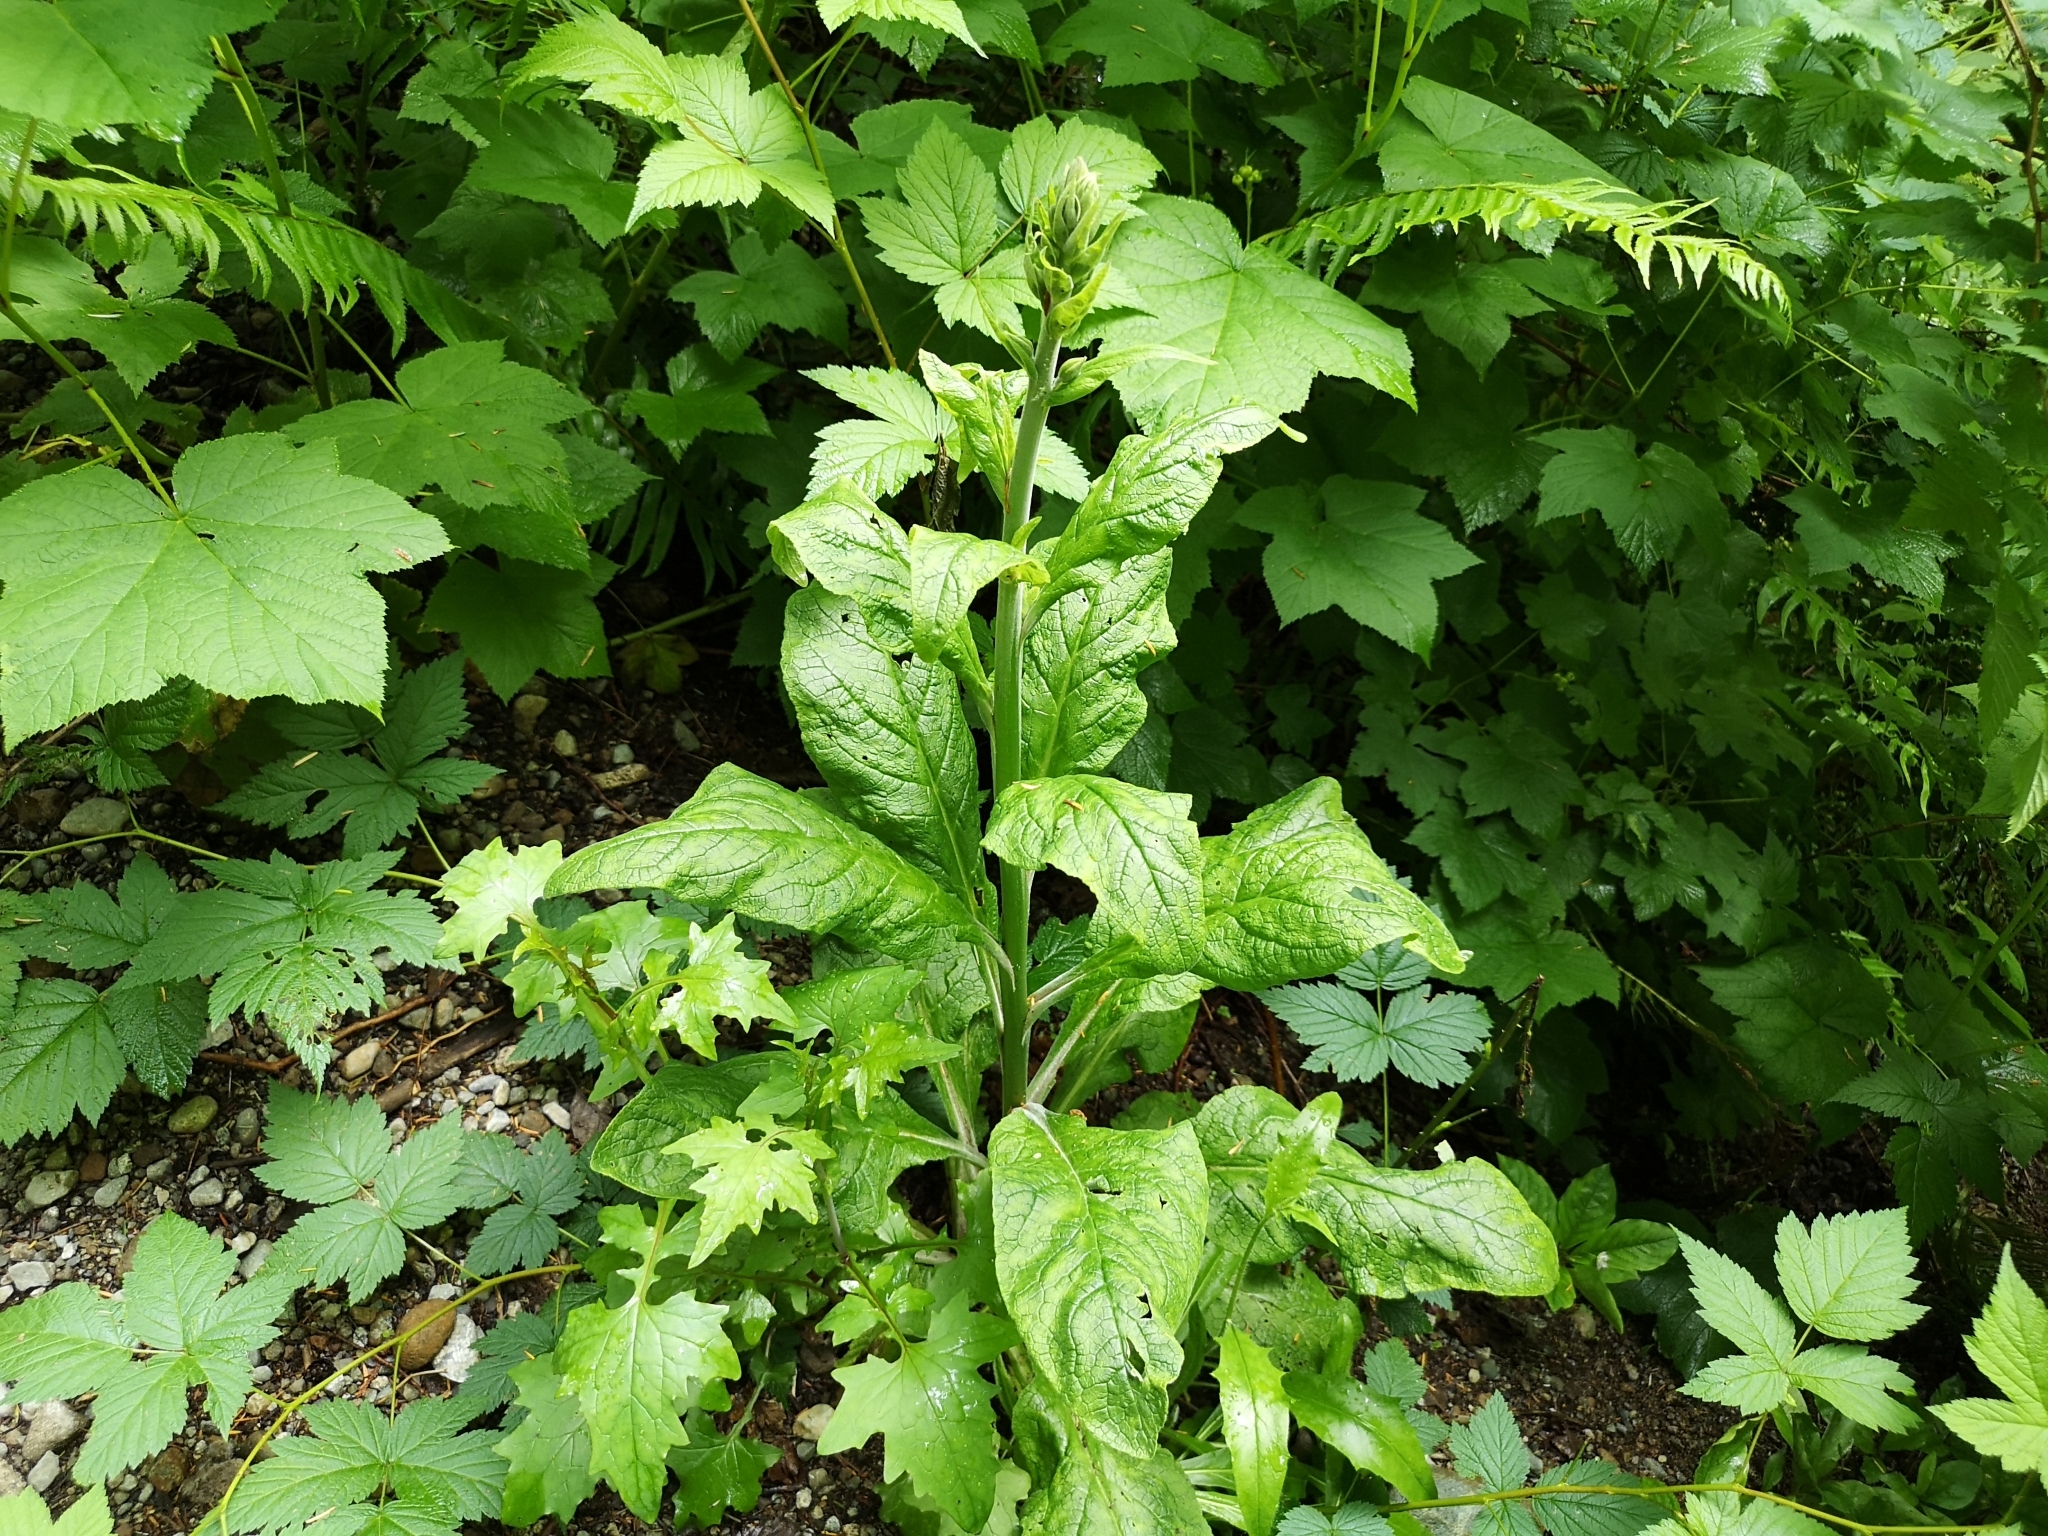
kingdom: Plantae
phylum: Tracheophyta
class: Magnoliopsida
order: Lamiales
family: Plantaginaceae
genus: Digitalis
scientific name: Digitalis purpurea
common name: Foxglove
